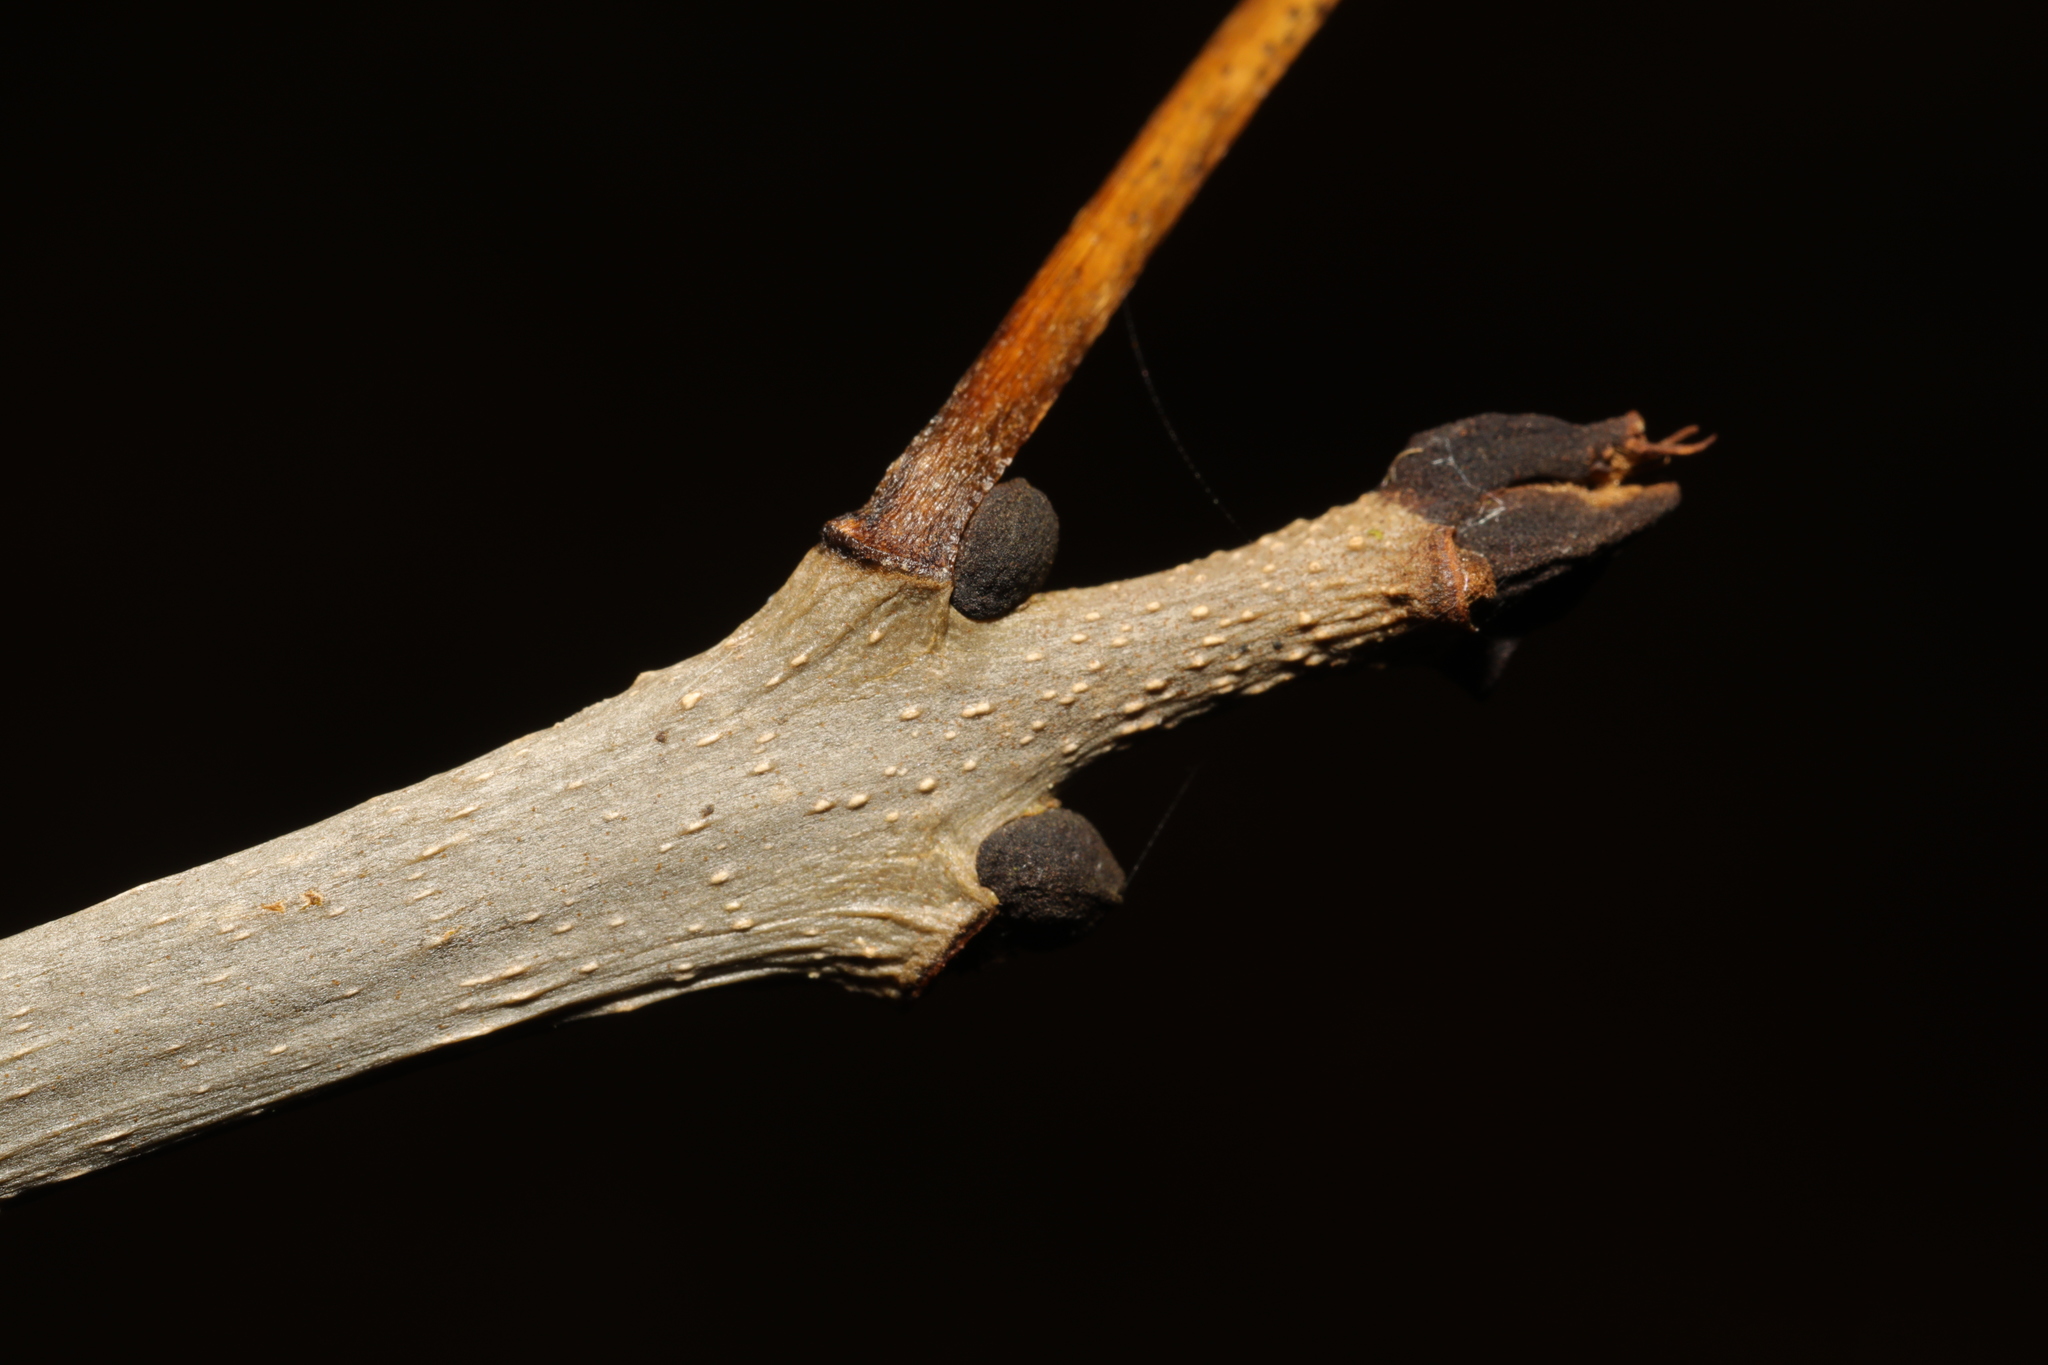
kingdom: Plantae
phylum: Tracheophyta
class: Magnoliopsida
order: Lamiales
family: Oleaceae
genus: Fraxinus
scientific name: Fraxinus excelsior
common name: European ash
